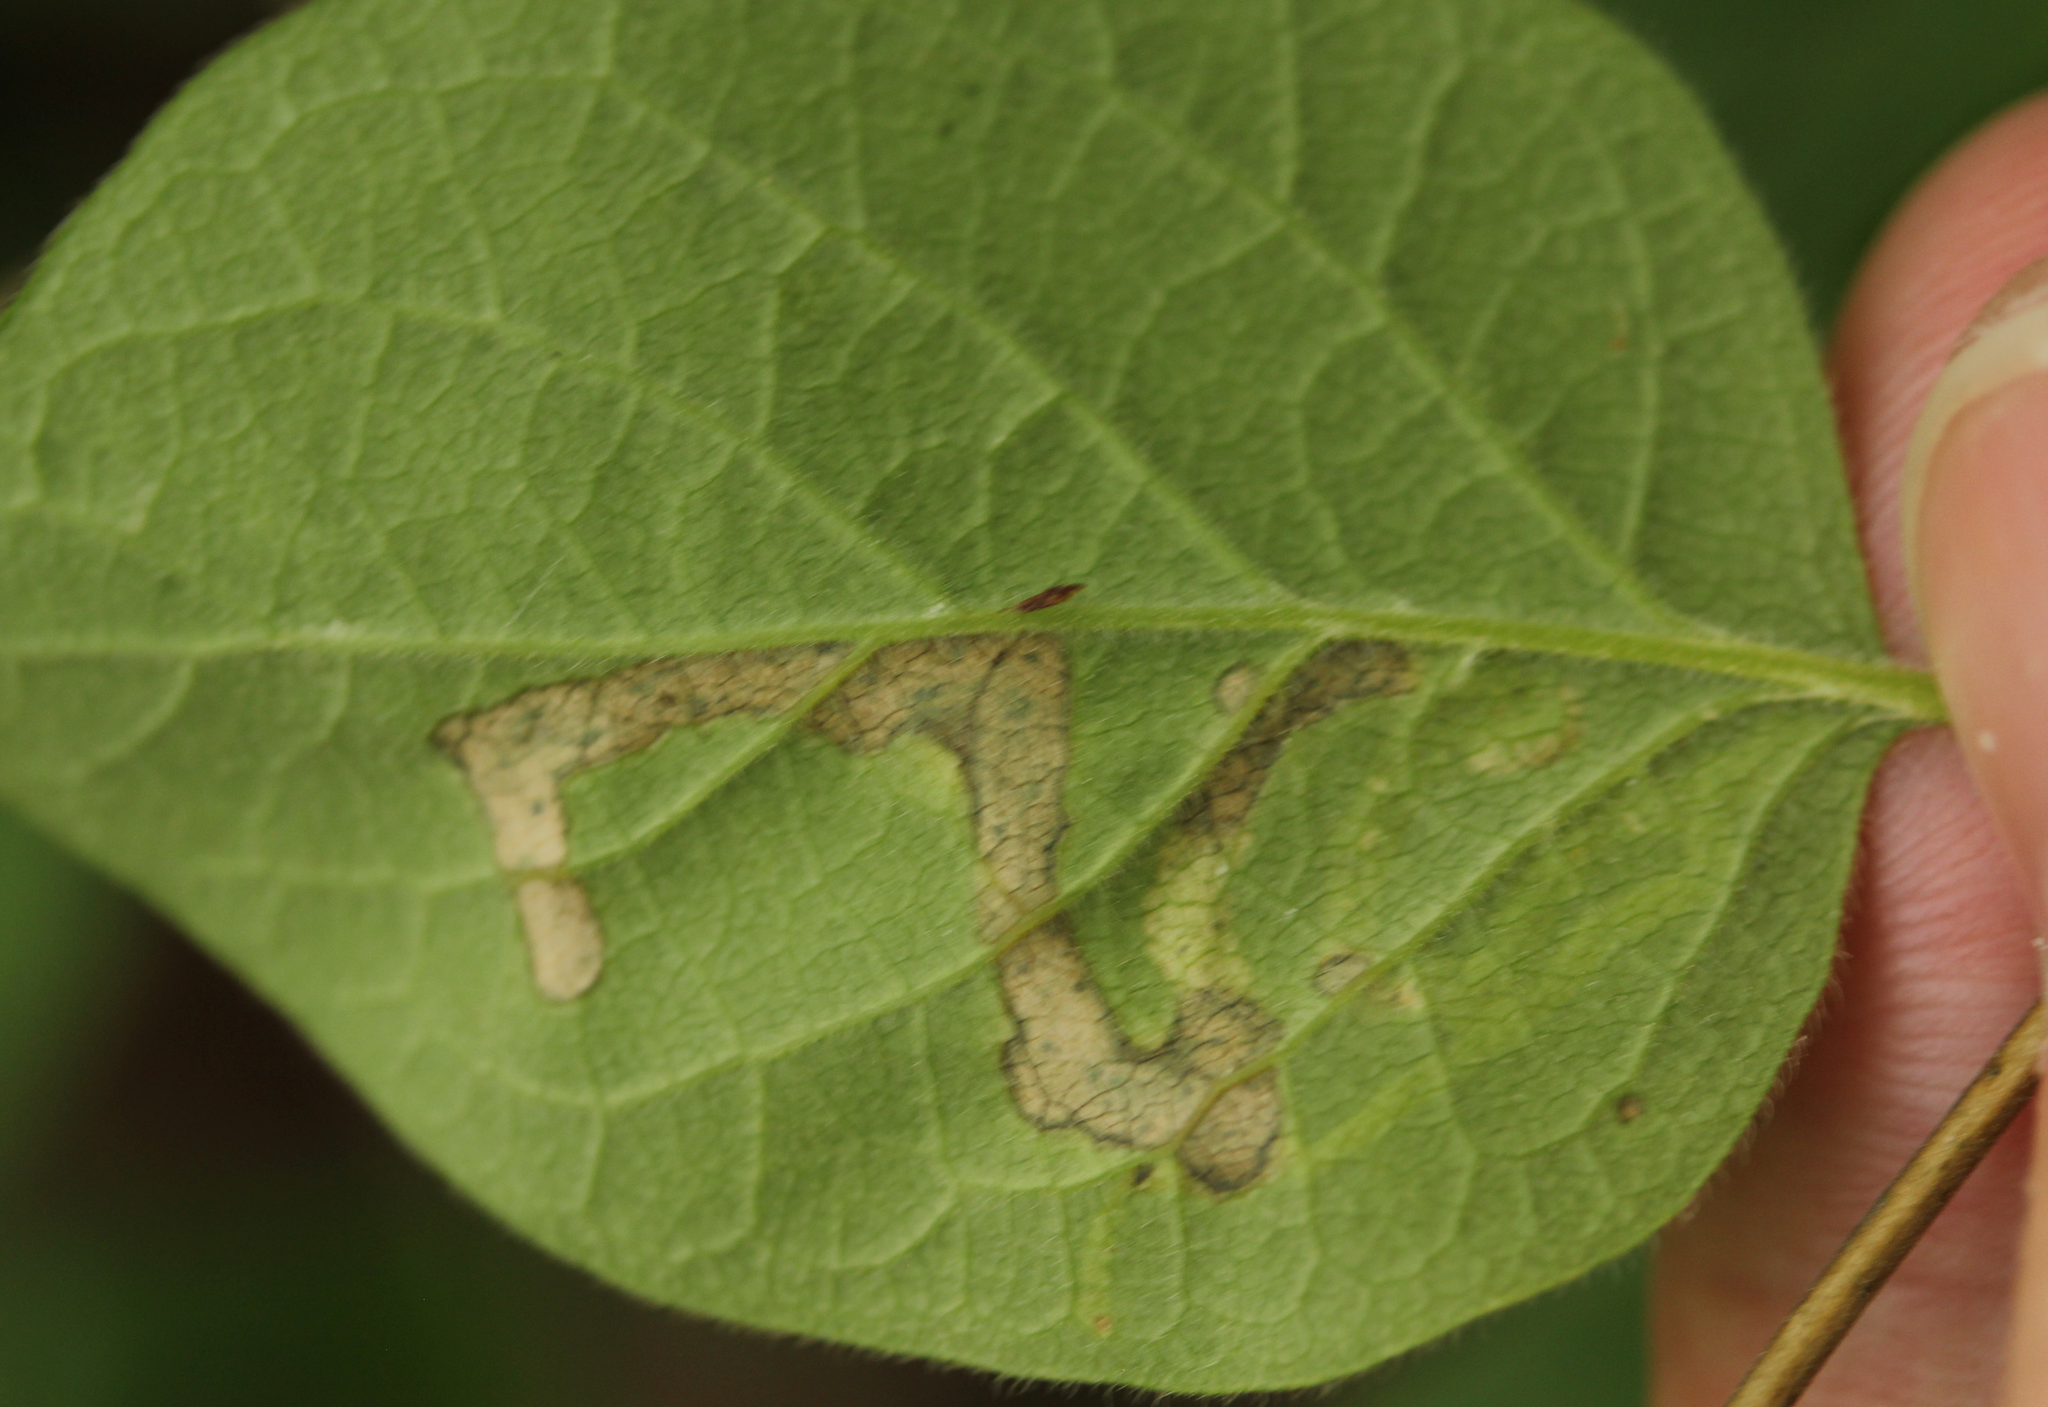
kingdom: Animalia
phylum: Arthropoda
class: Insecta
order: Diptera
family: Agromyzidae
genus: Aulagromyza
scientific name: Aulagromyza
